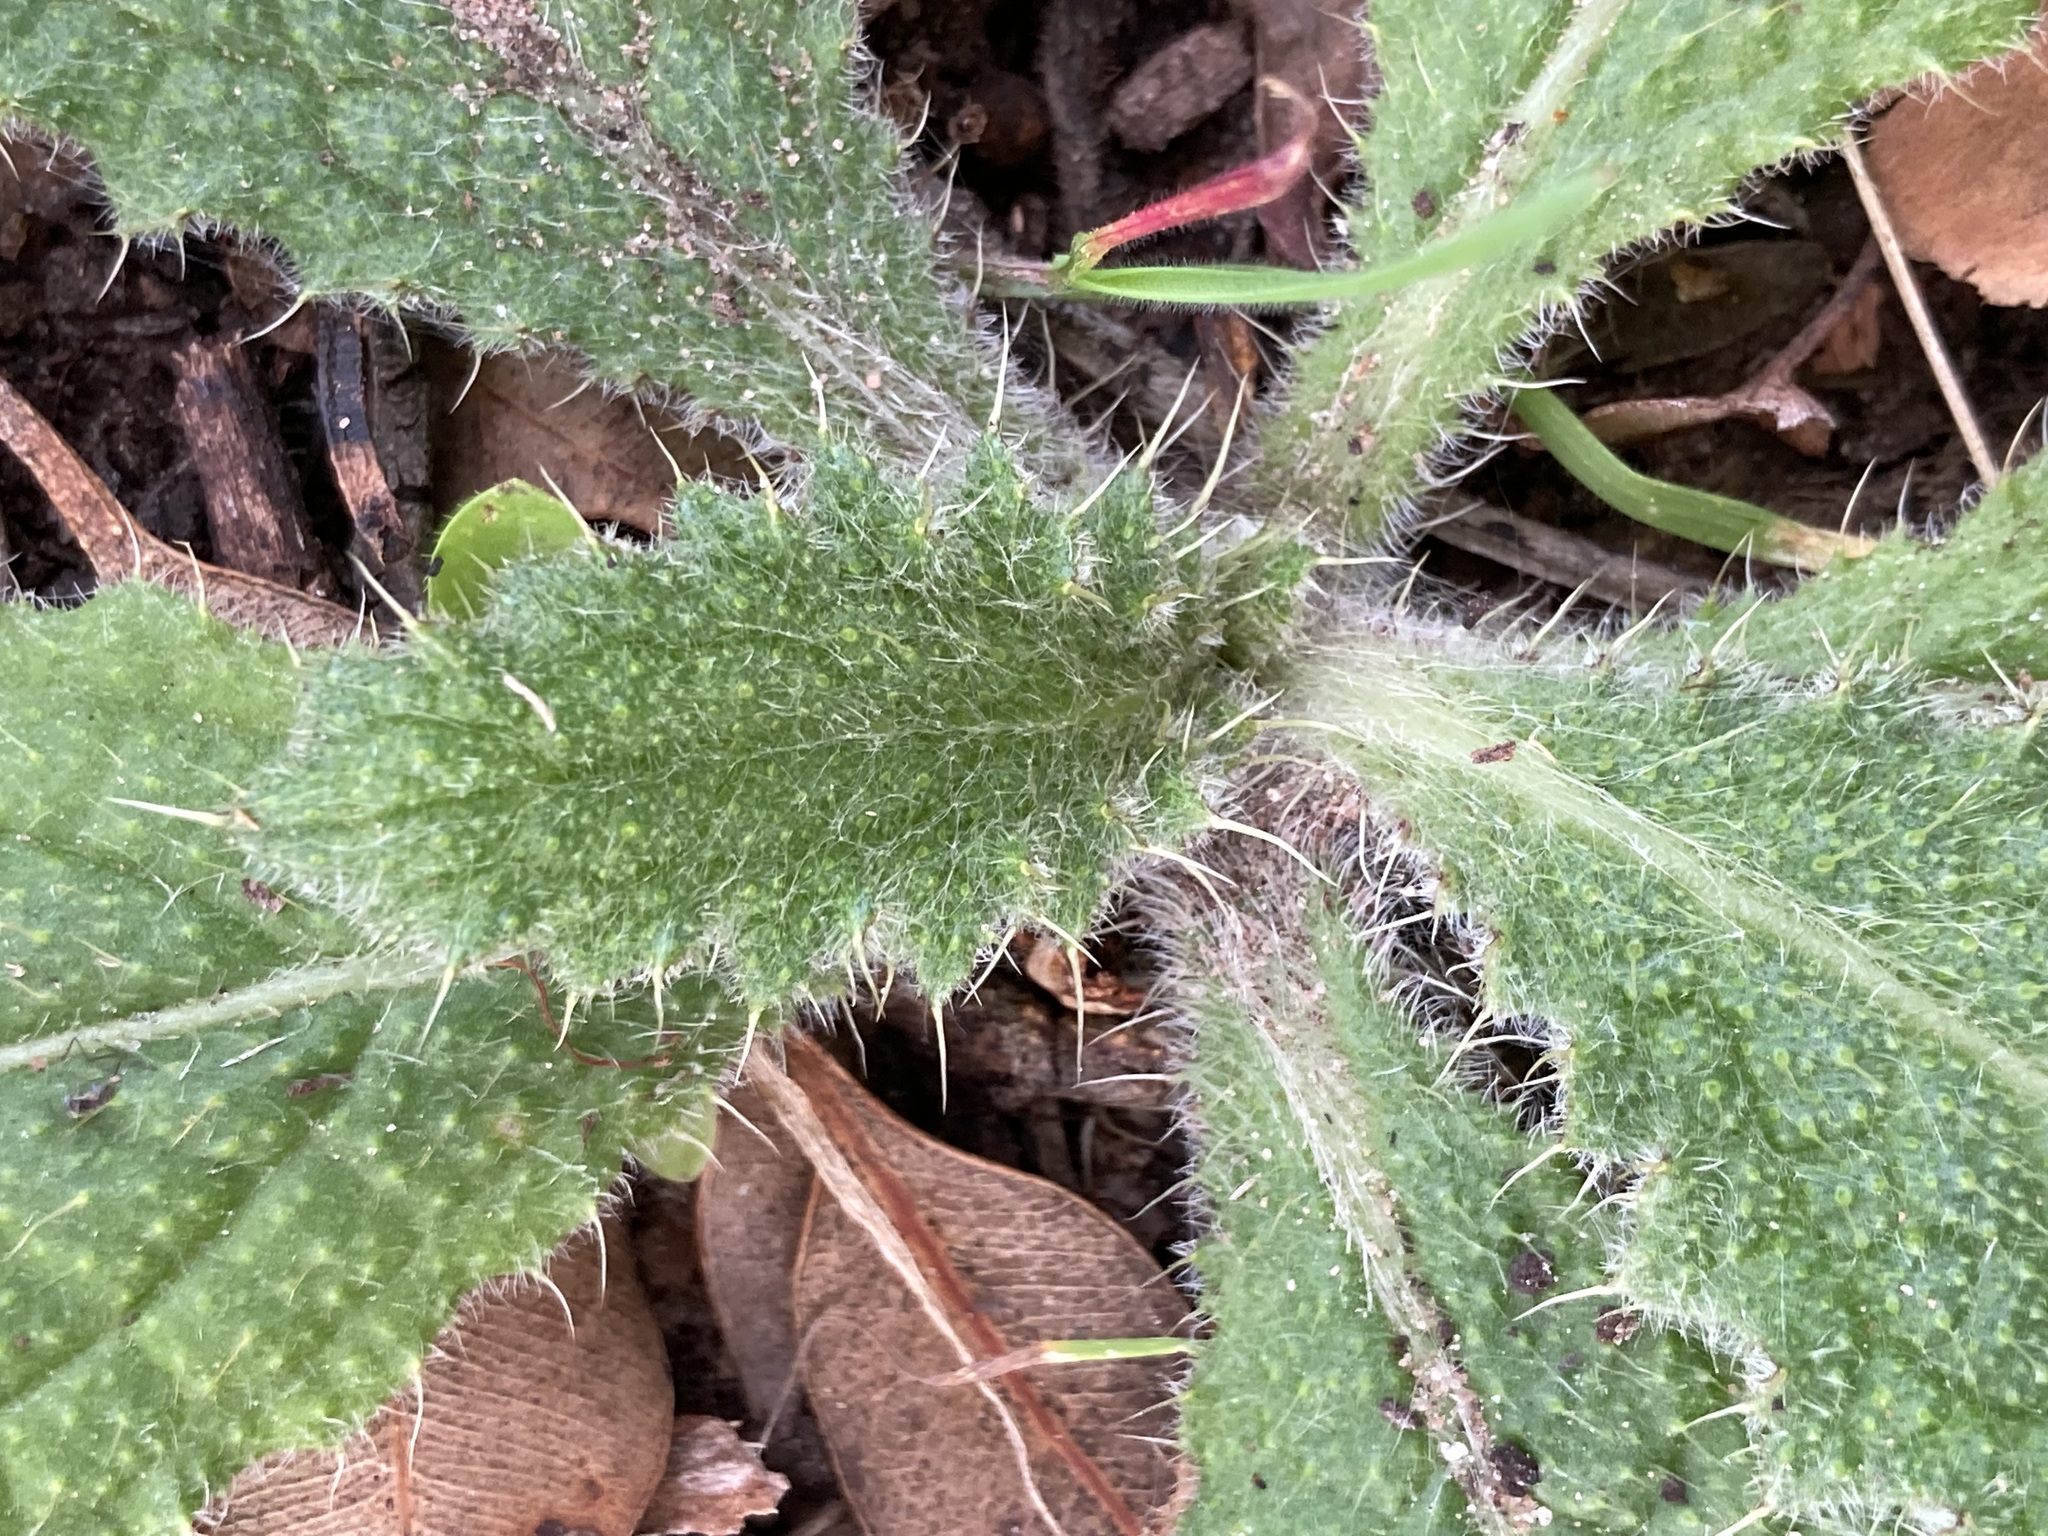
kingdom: Plantae
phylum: Tracheophyta
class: Magnoliopsida
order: Asterales
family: Asteraceae
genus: Cirsium
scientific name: Cirsium vulgare
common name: Bull thistle
